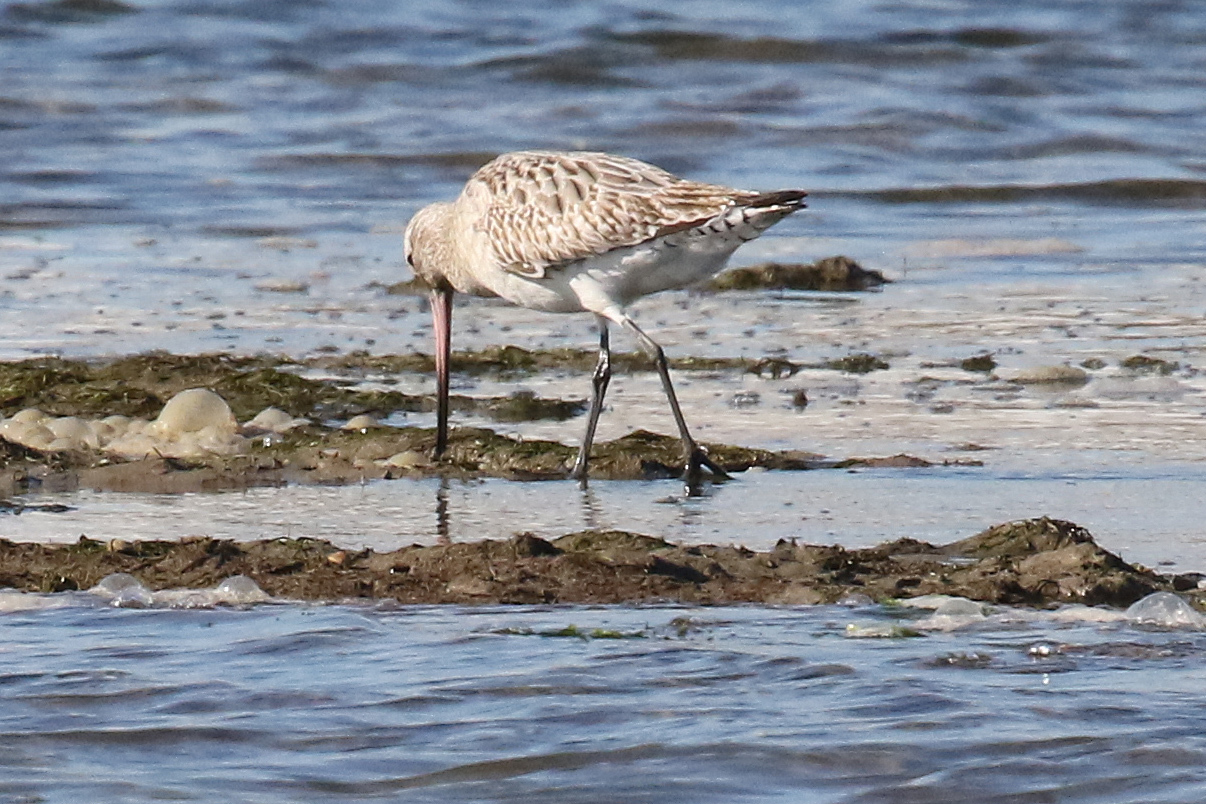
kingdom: Animalia
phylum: Chordata
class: Aves
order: Charadriiformes
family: Scolopacidae
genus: Limosa
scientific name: Limosa lapponica
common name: Bar-tailed godwit
